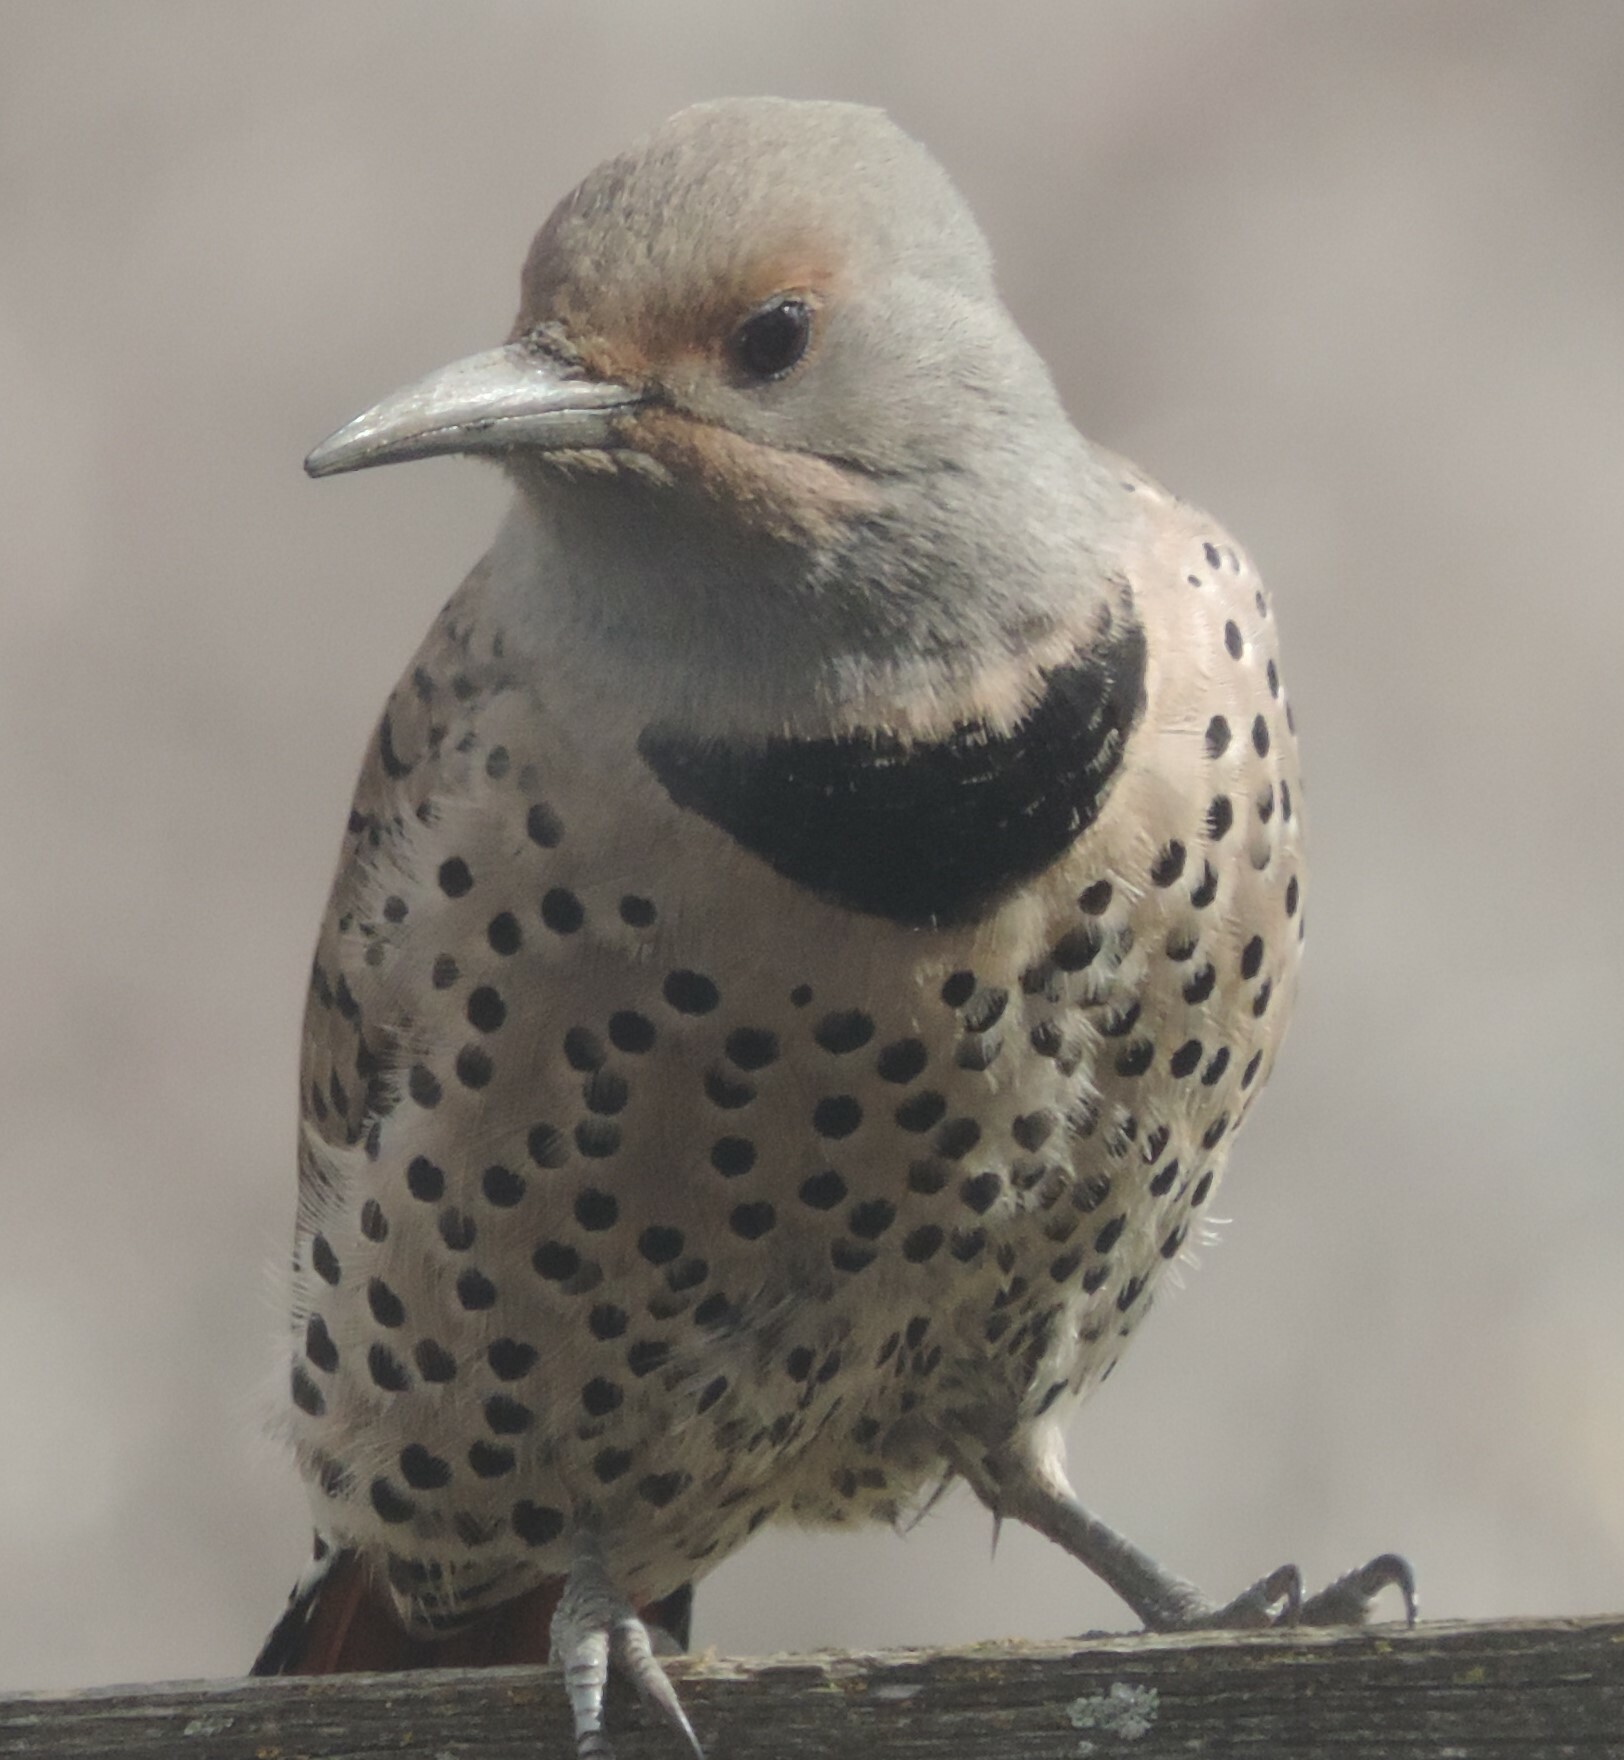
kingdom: Animalia
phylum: Chordata
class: Aves
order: Piciformes
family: Picidae
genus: Colaptes
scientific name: Colaptes auratus
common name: Northern flicker
